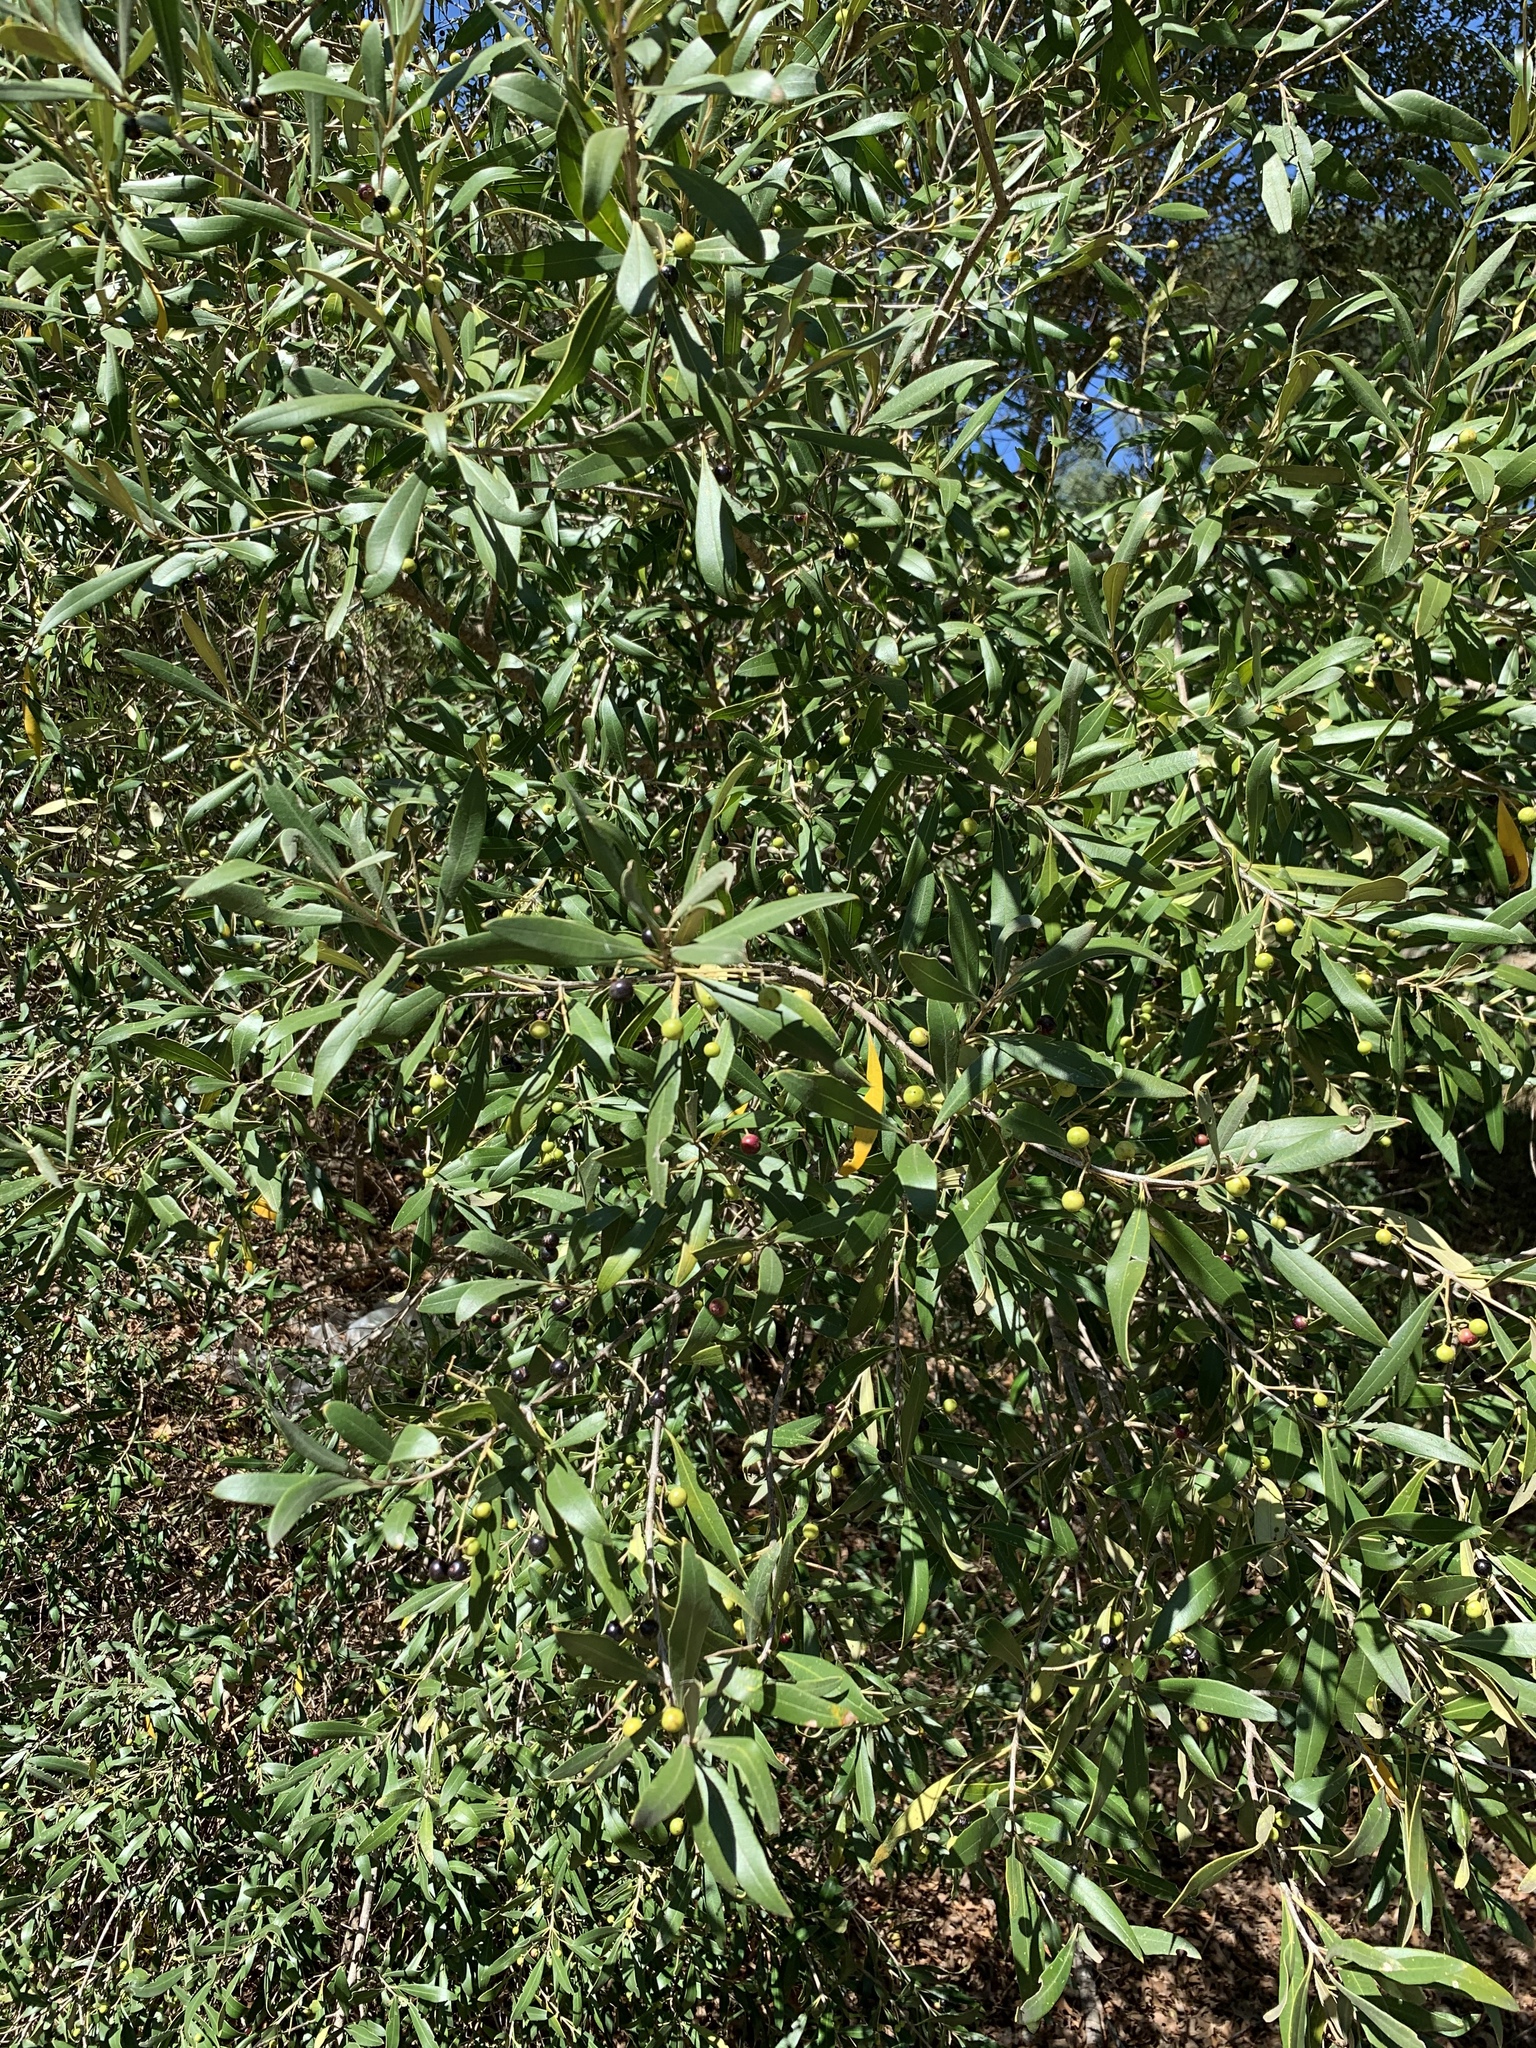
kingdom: Plantae
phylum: Tracheophyta
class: Magnoliopsida
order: Lamiales
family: Oleaceae
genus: Olea
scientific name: Olea europaea
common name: Olive
